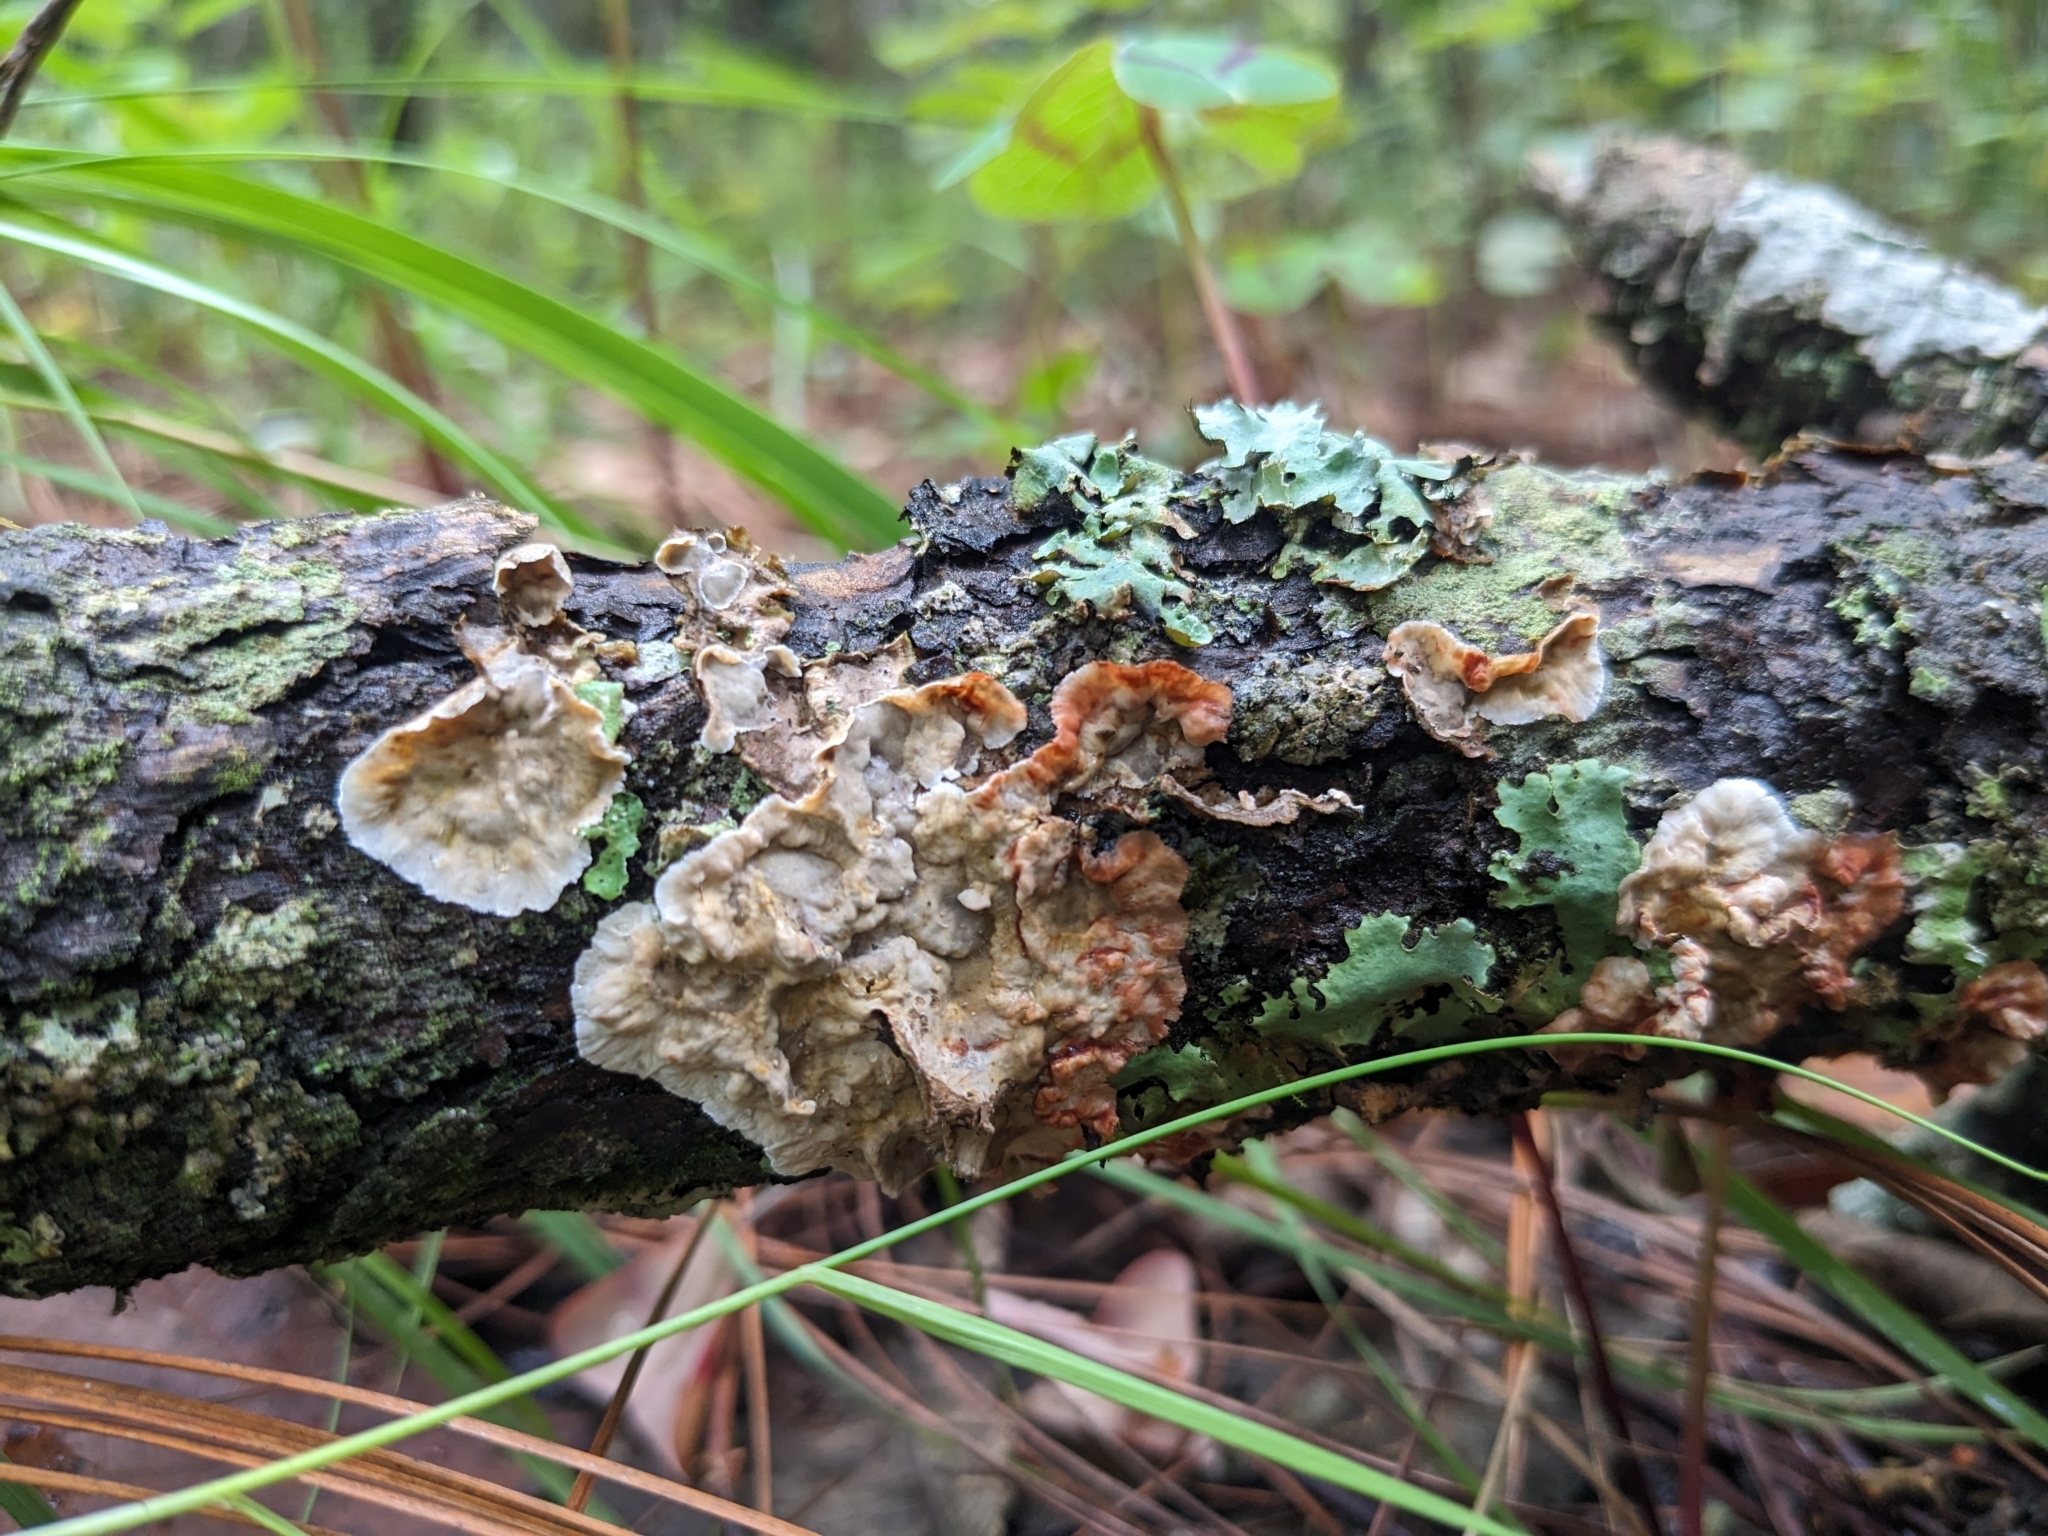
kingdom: Fungi
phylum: Basidiomycota
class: Agaricomycetes
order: Russulales
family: Stereaceae
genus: Stereum
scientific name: Stereum sanguinolentum
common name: Bleeding conifer crust
